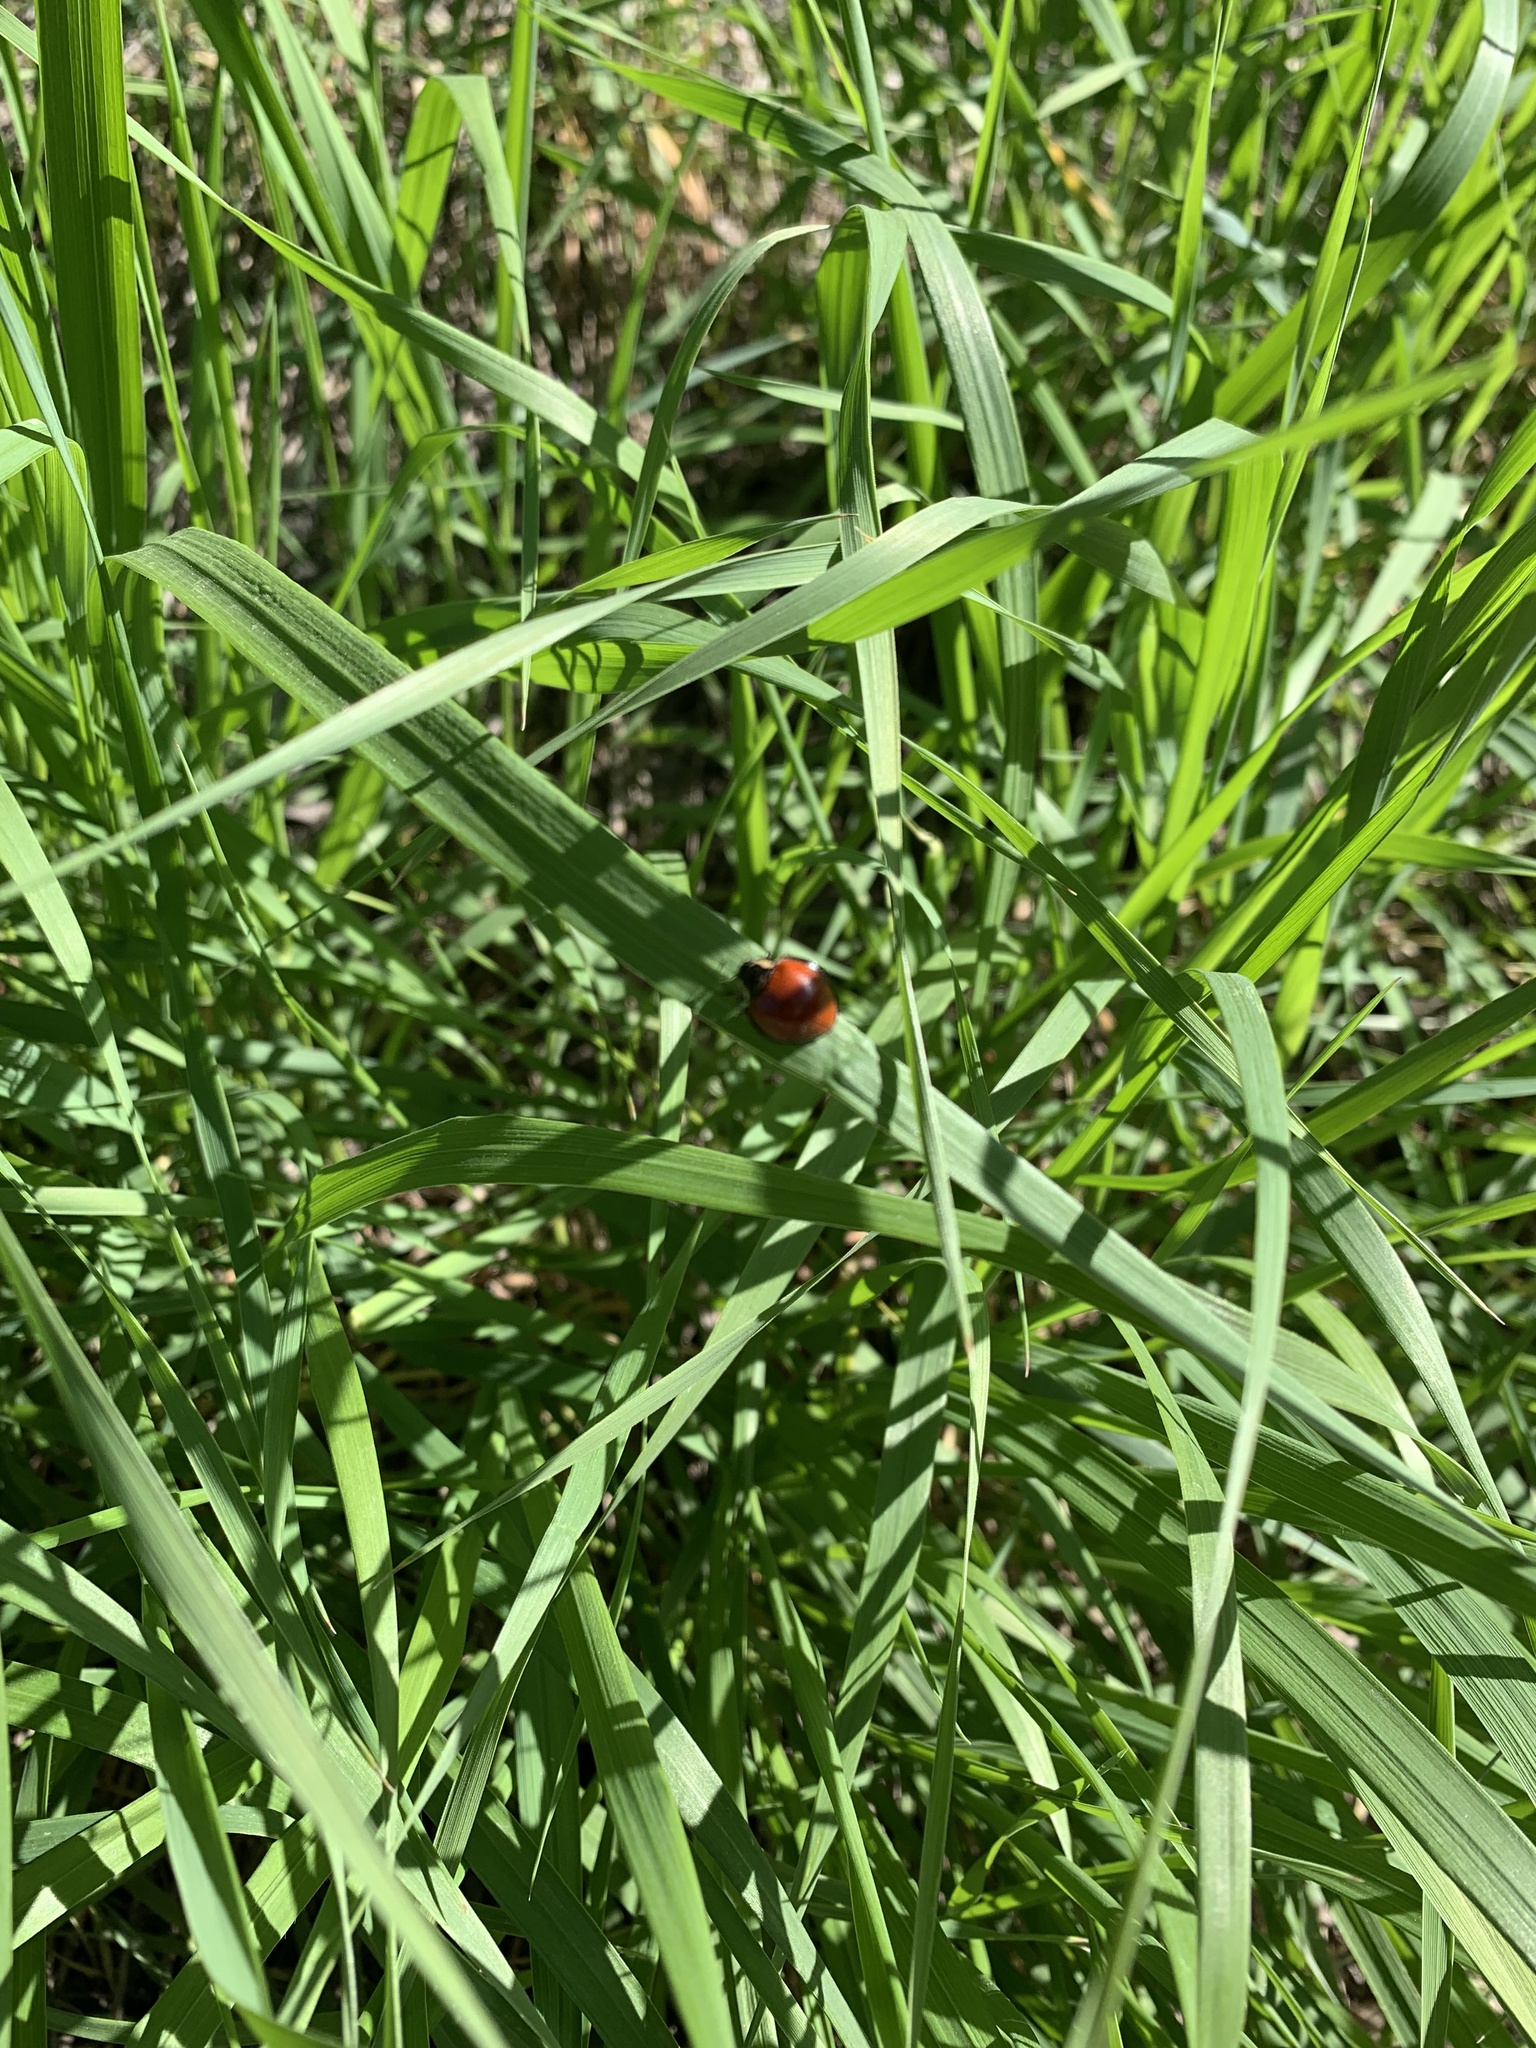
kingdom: Animalia
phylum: Arthropoda
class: Insecta
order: Coleoptera
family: Coccinellidae
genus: Anatis
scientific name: Anatis lecontei
